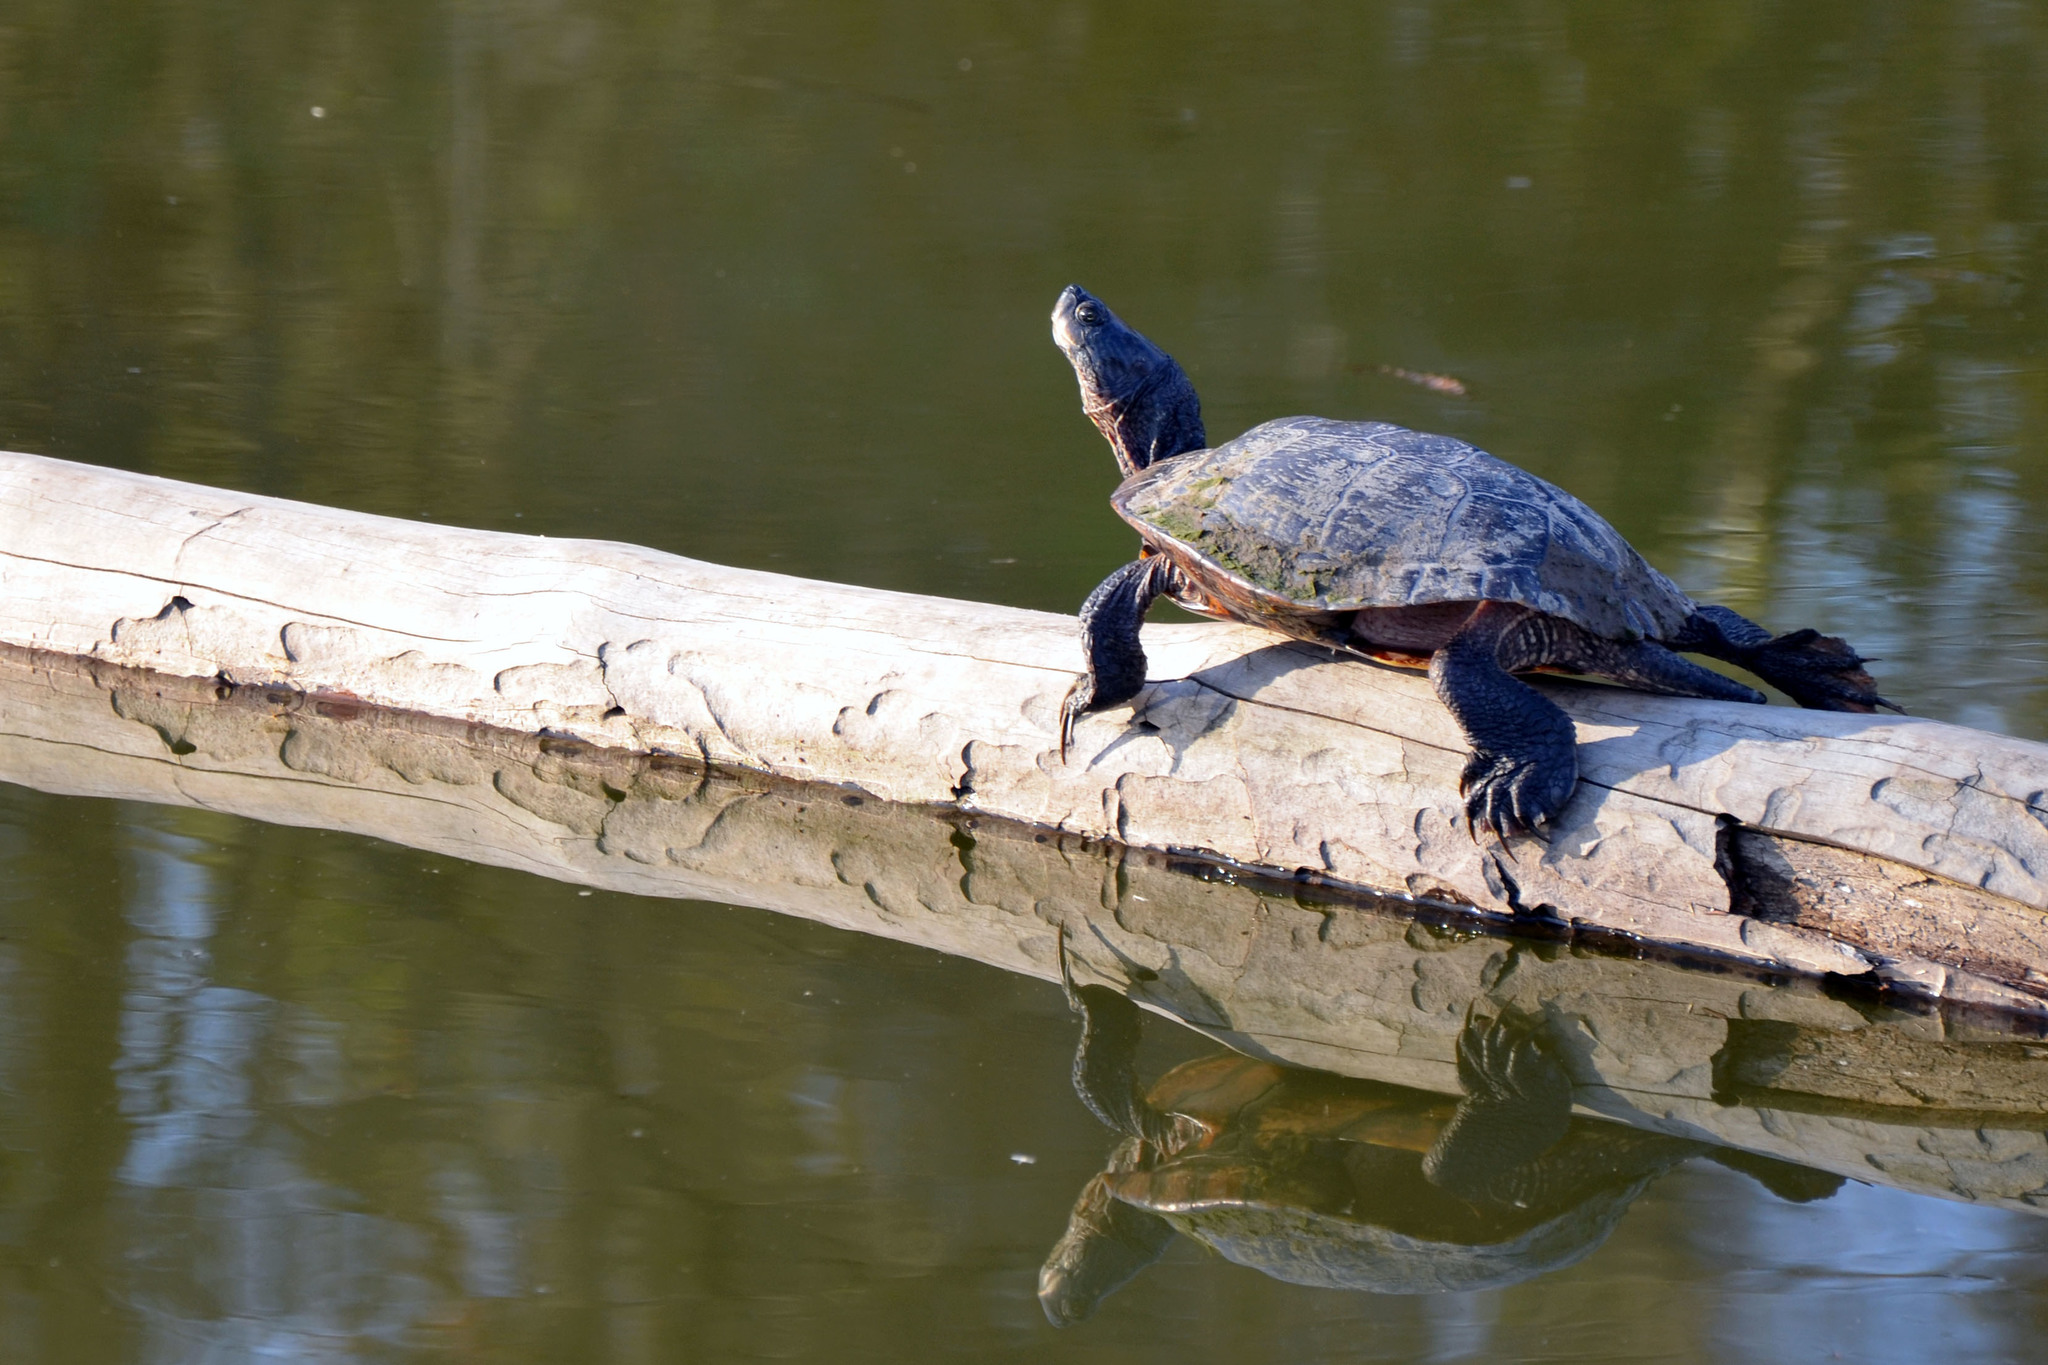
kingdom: Animalia
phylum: Chordata
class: Testudines
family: Emydidae
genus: Trachemys
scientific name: Trachemys scripta
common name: Slider
